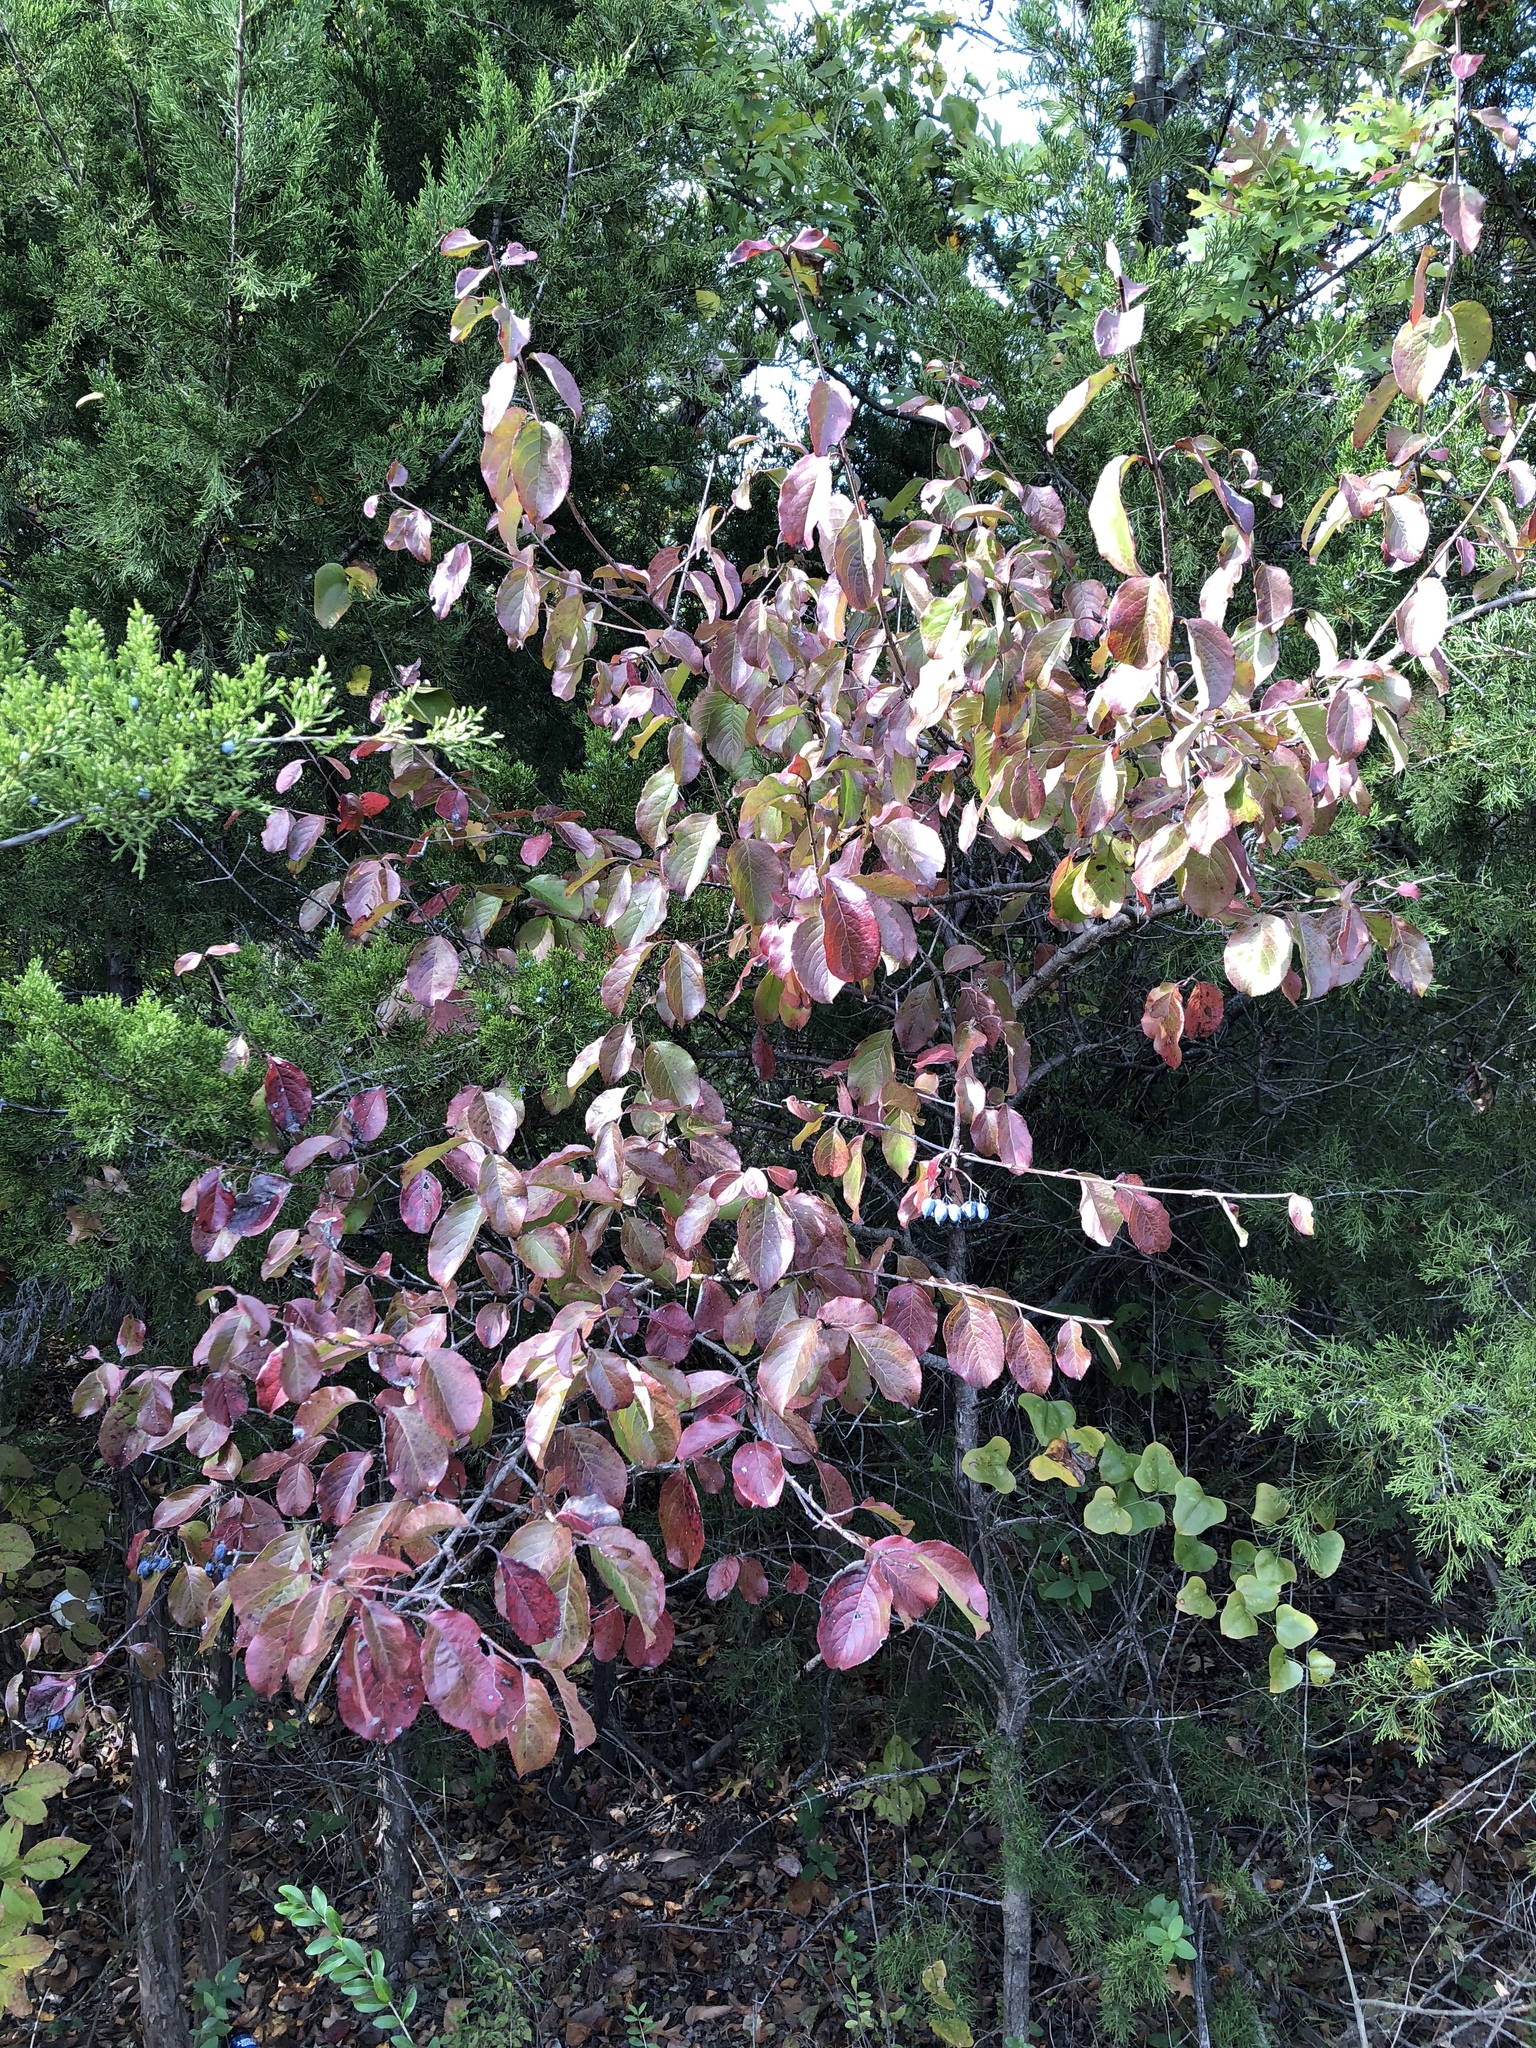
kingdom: Plantae
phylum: Tracheophyta
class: Magnoliopsida
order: Dipsacales
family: Viburnaceae
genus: Viburnum
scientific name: Viburnum rufidulum
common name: Blue haw
